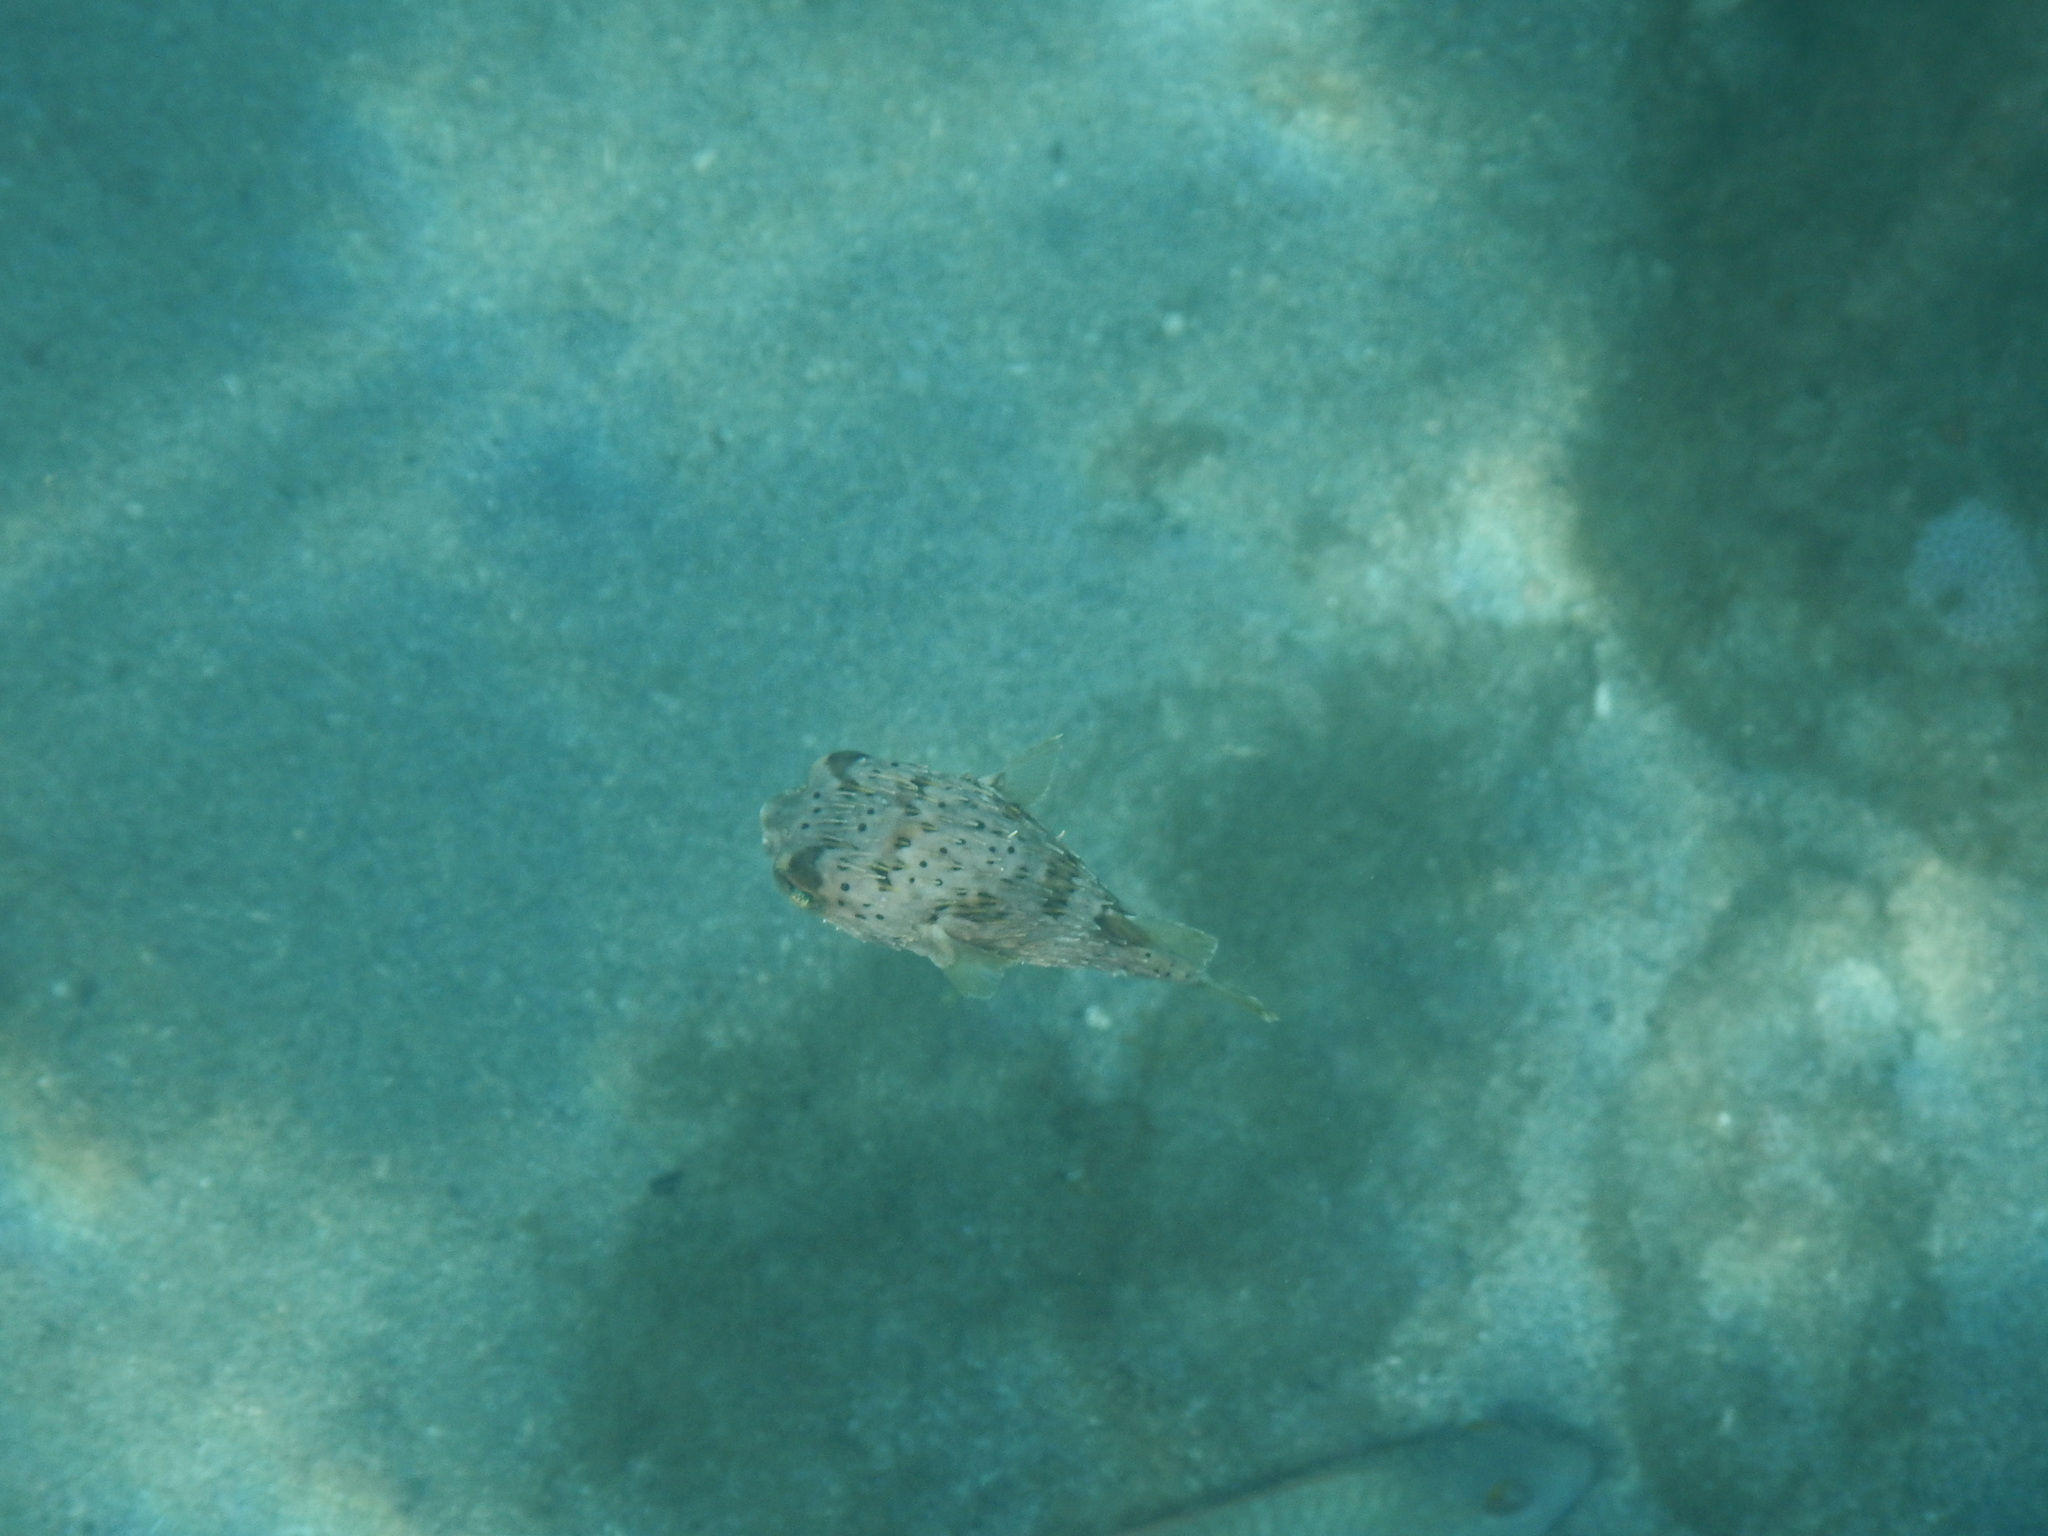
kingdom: Animalia
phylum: Chordata
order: Tetraodontiformes
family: Diodontidae
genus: Diodon
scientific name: Diodon holocanthus
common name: Balloonfish
